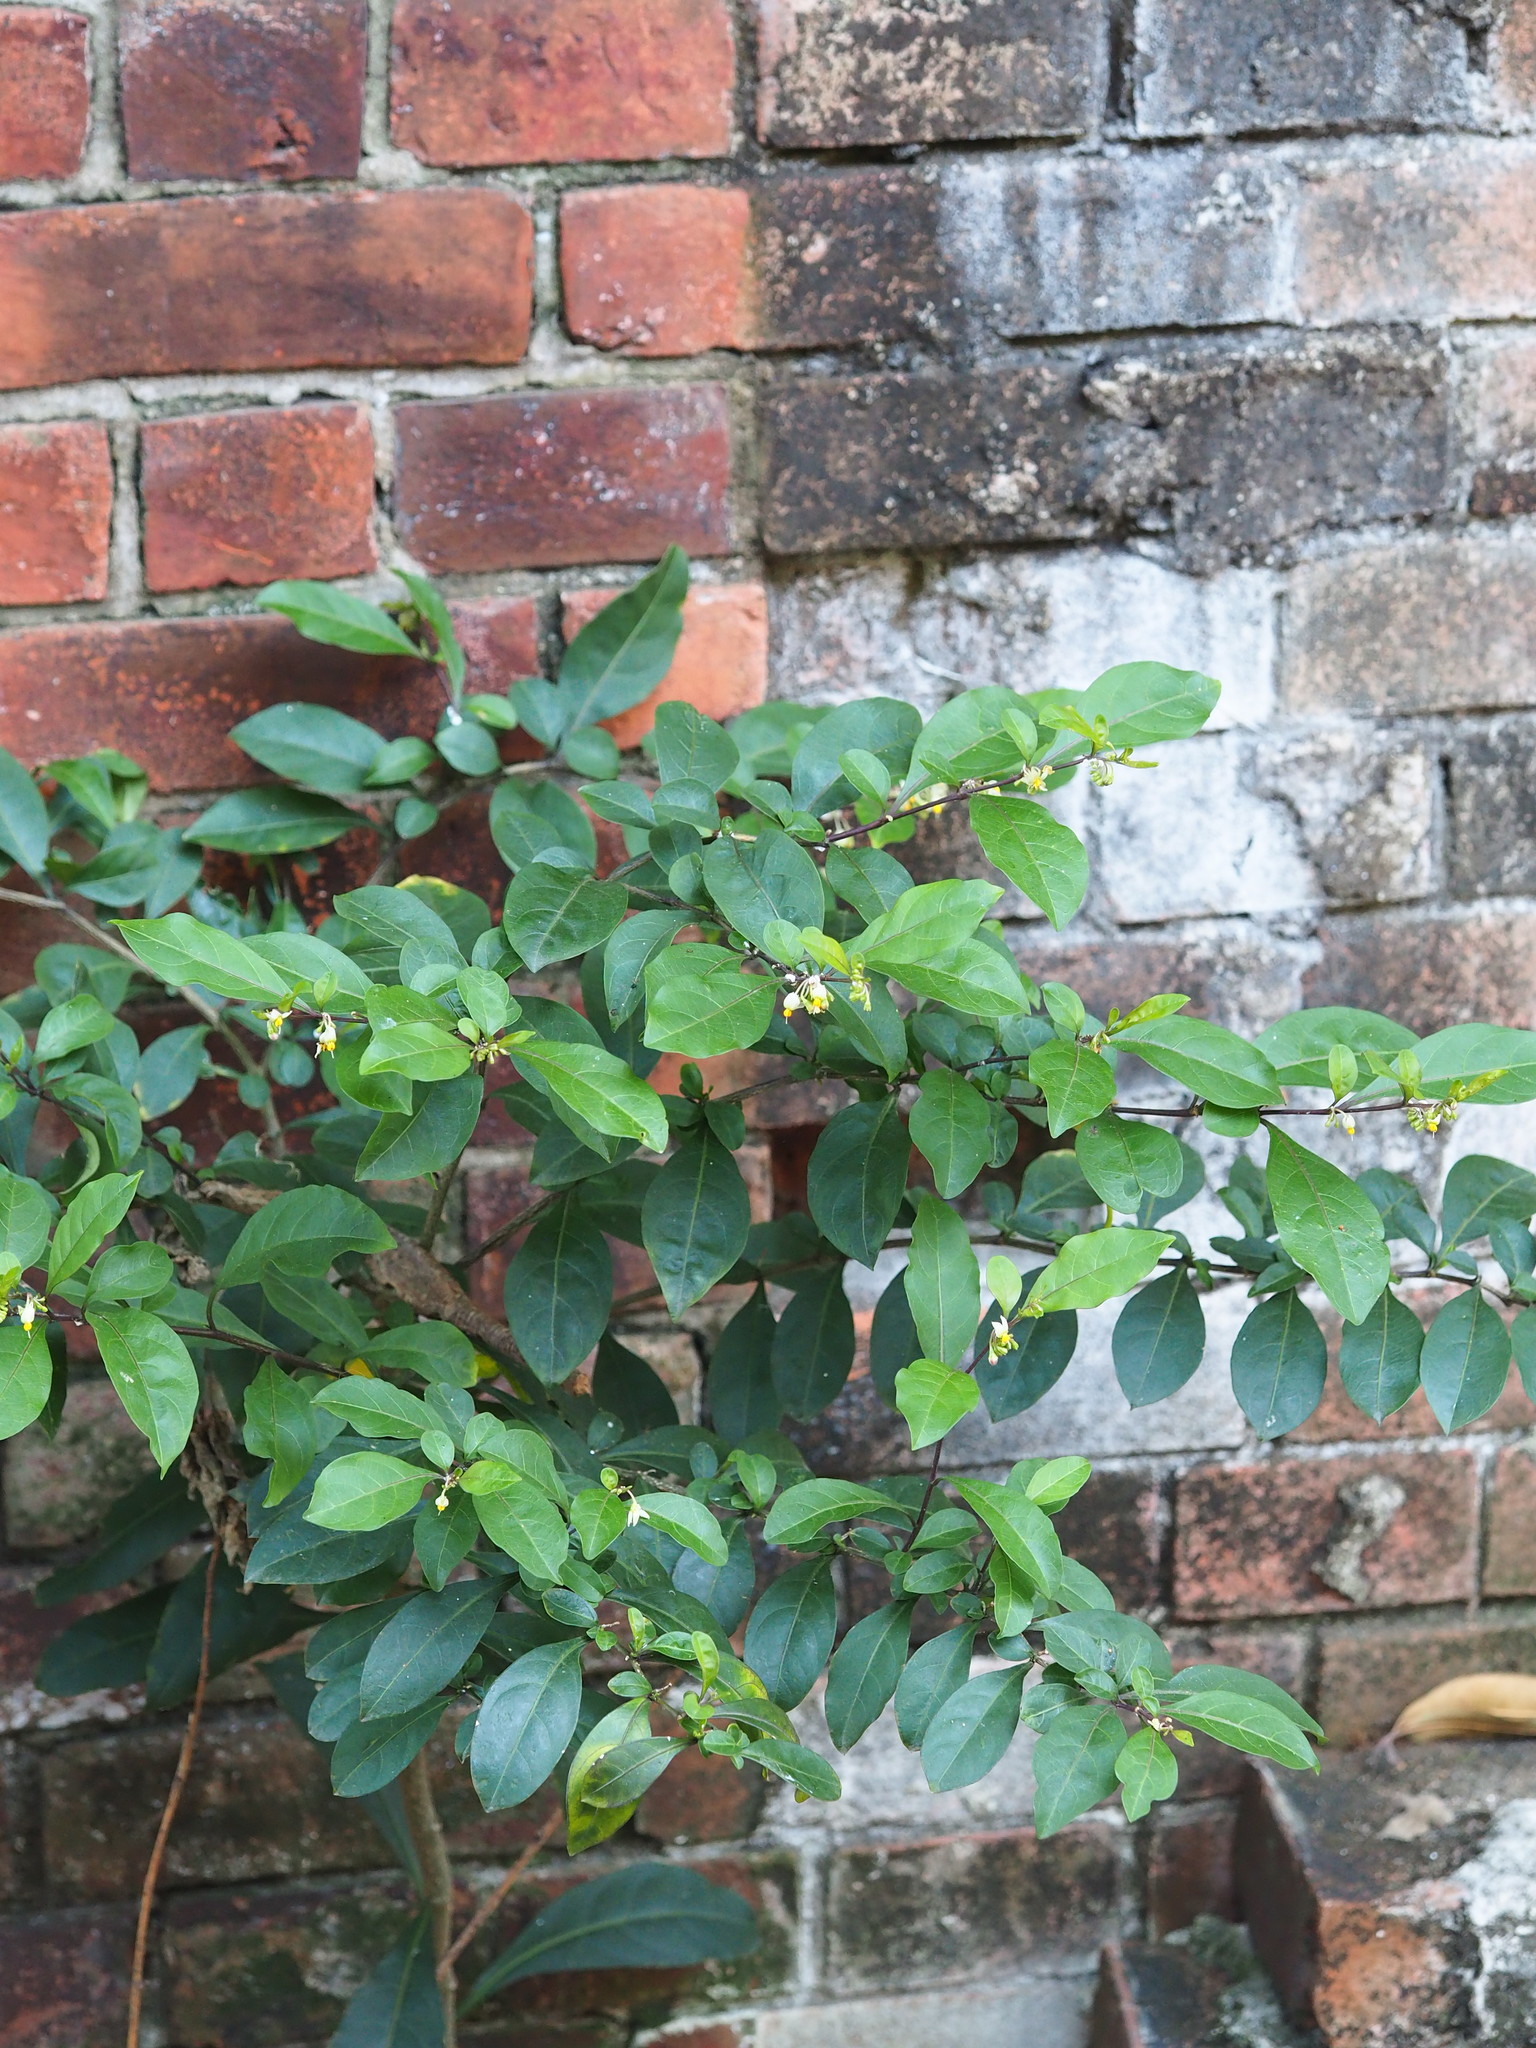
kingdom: Plantae
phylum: Tracheophyta
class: Magnoliopsida
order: Solanales
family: Solanaceae
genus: Solanum
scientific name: Solanum diphyllum
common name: Twoleaf nightshade
